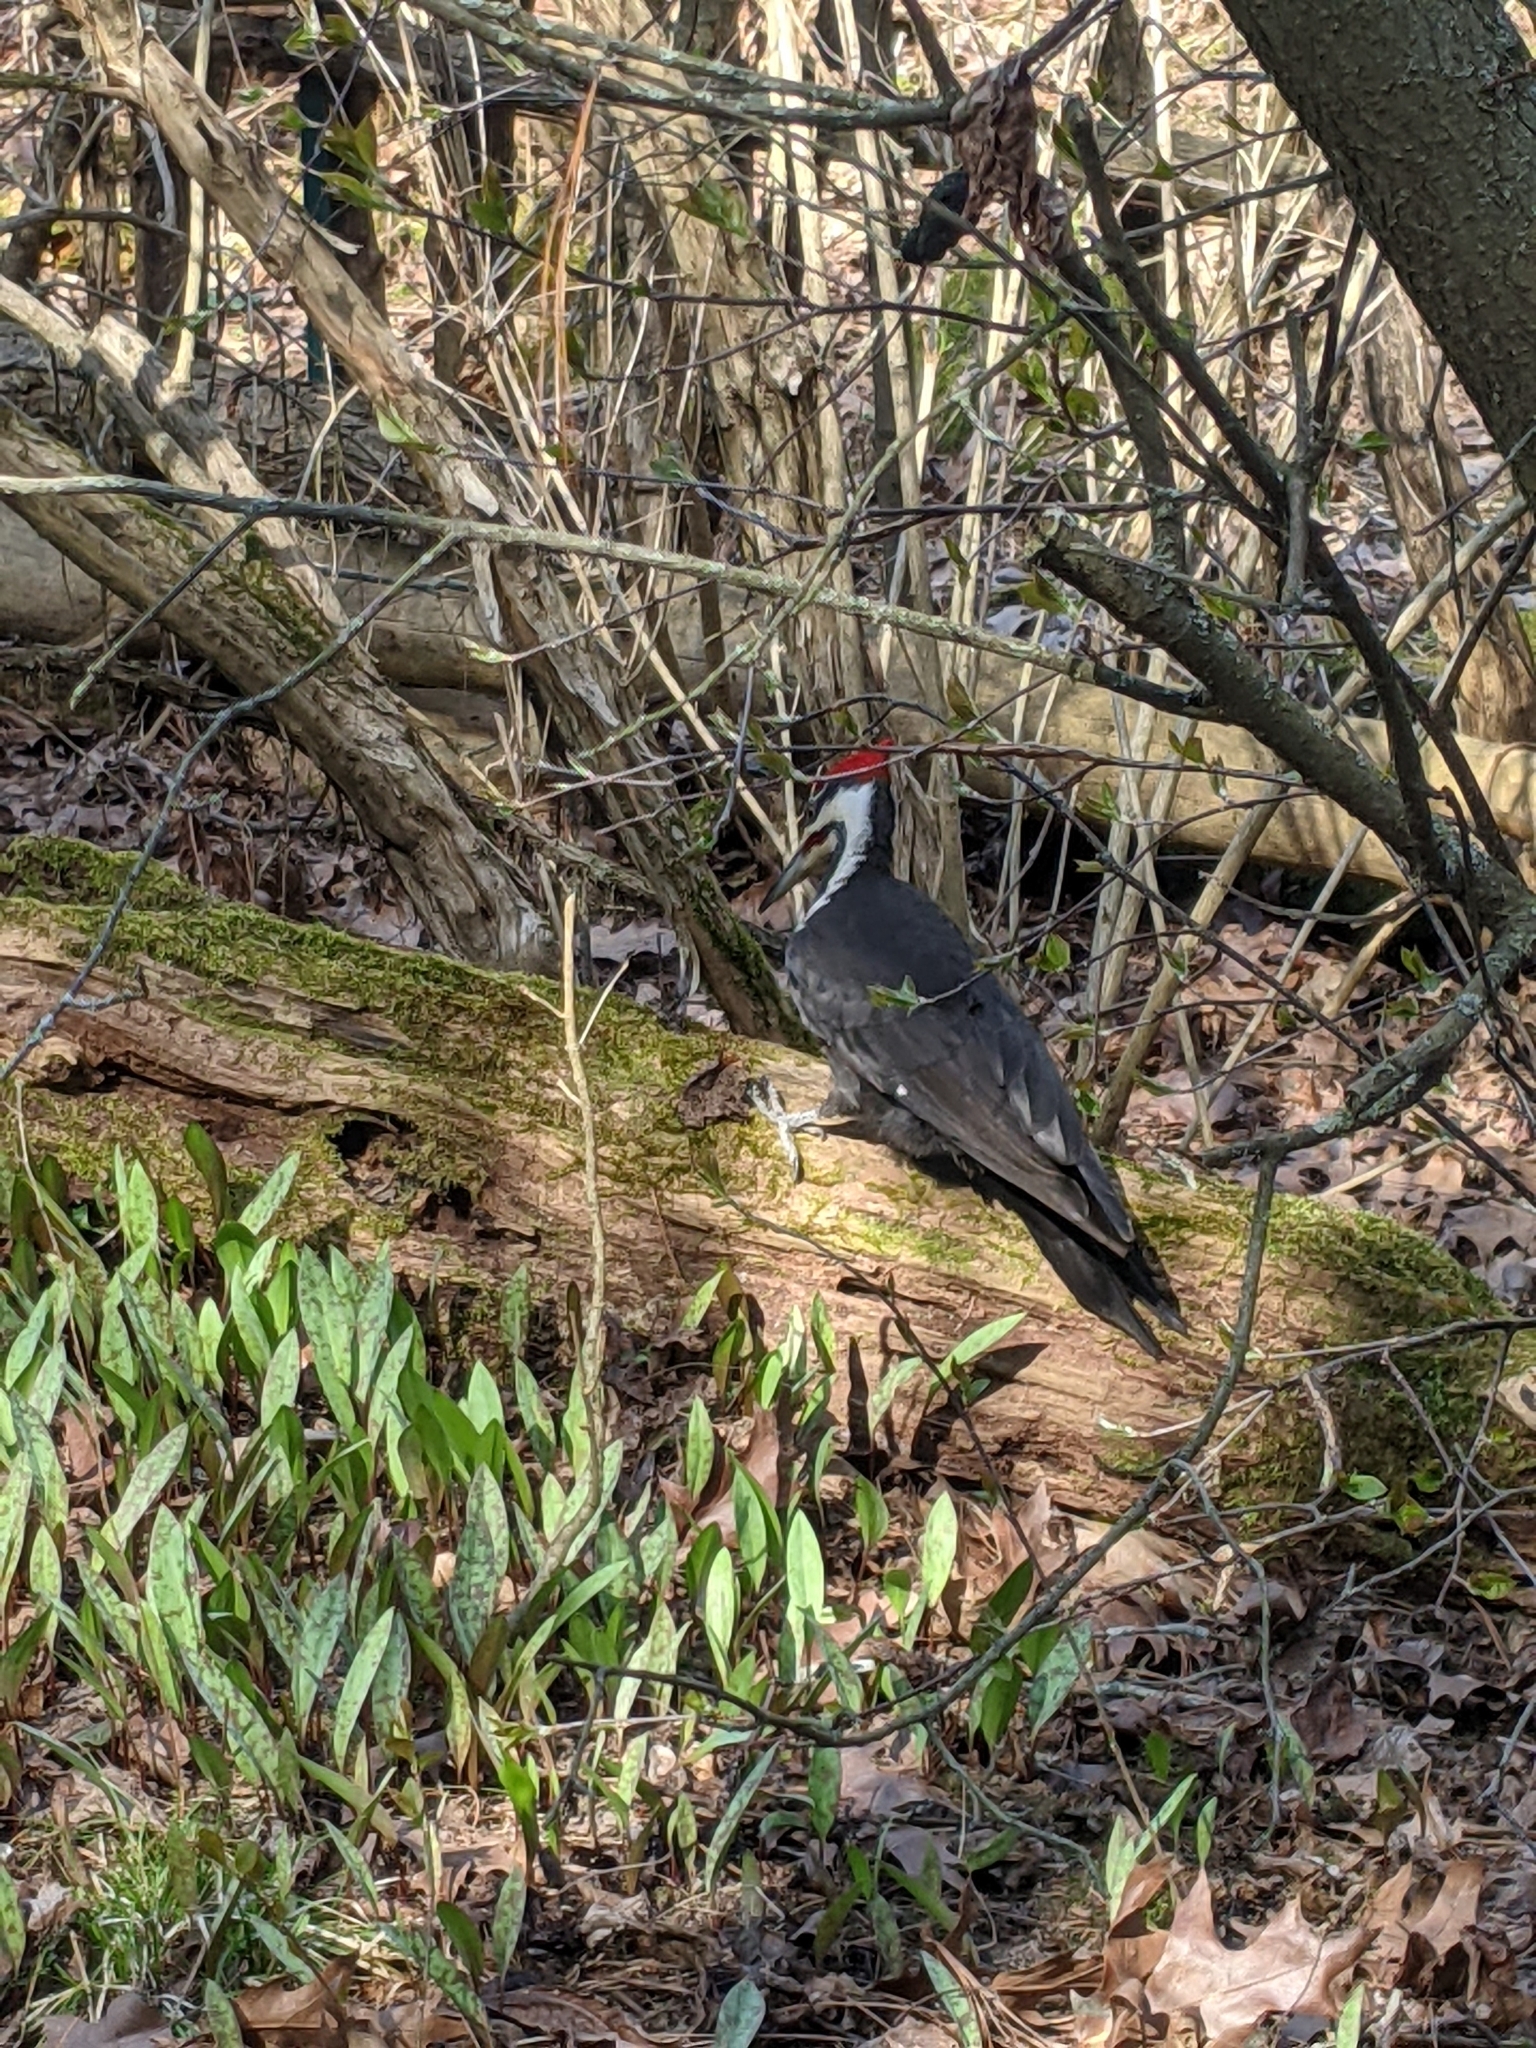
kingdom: Animalia
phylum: Chordata
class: Aves
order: Piciformes
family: Picidae
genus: Dryocopus
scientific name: Dryocopus pileatus
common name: Pileated woodpecker
